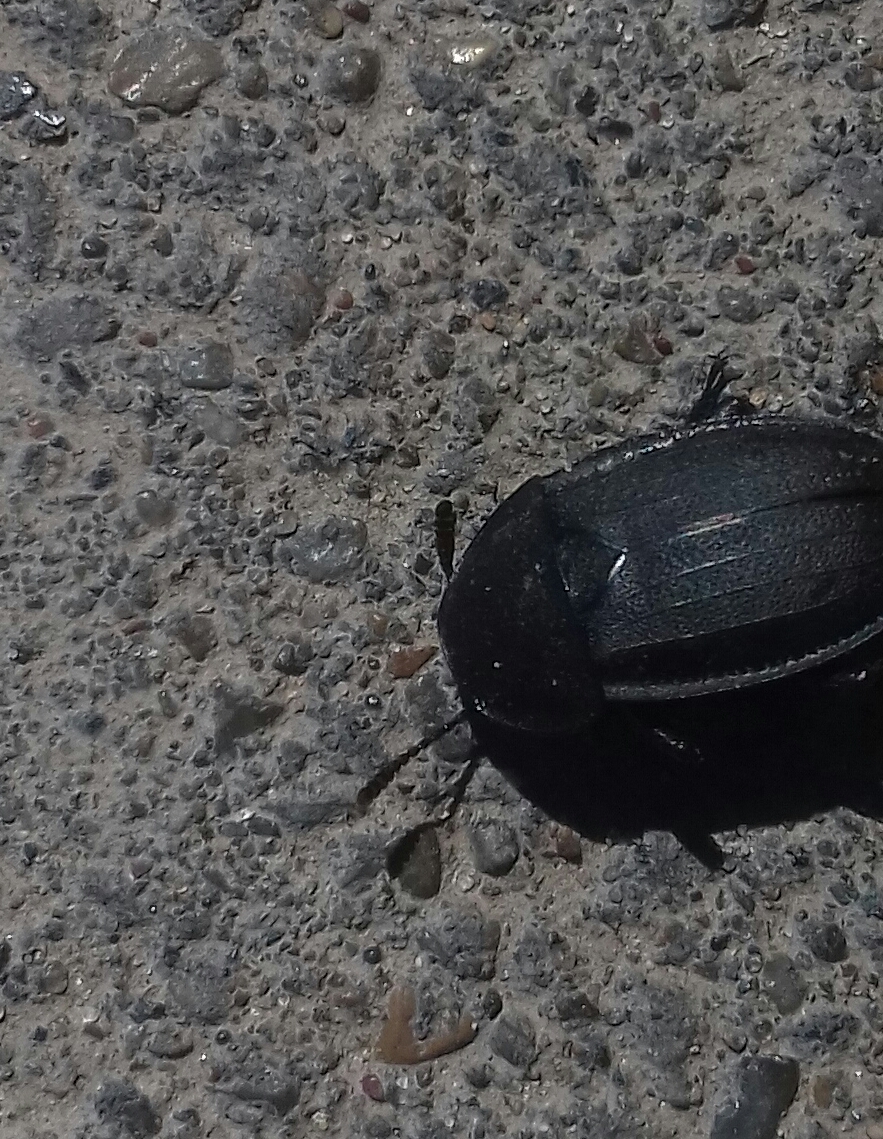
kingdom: Animalia
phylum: Arthropoda
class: Insecta
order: Coleoptera
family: Staphylinidae
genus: Silpha
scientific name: Silpha atrata
